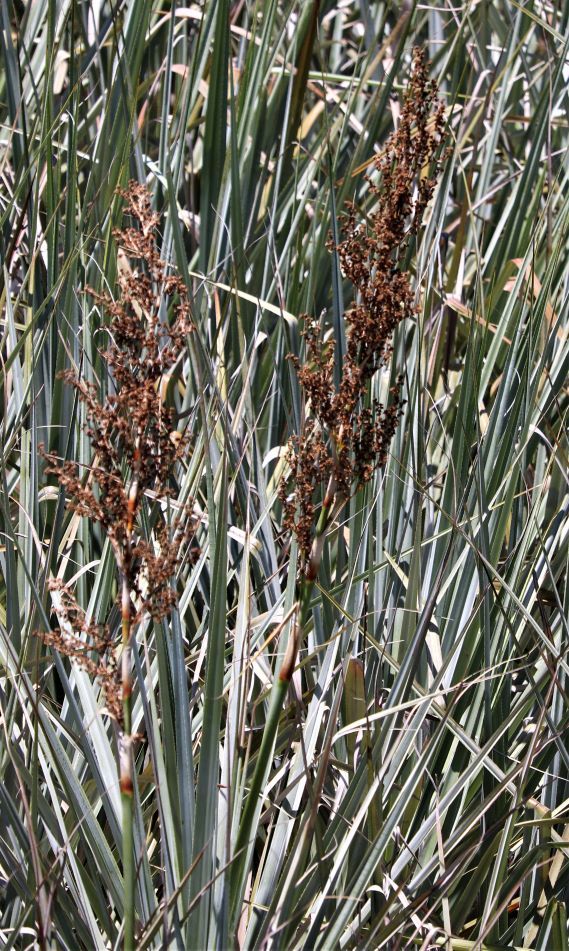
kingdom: Plantae
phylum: Tracheophyta
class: Liliopsida
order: Poales
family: Thurniaceae
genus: Prionium
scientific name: Prionium serratum
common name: Palmiet
